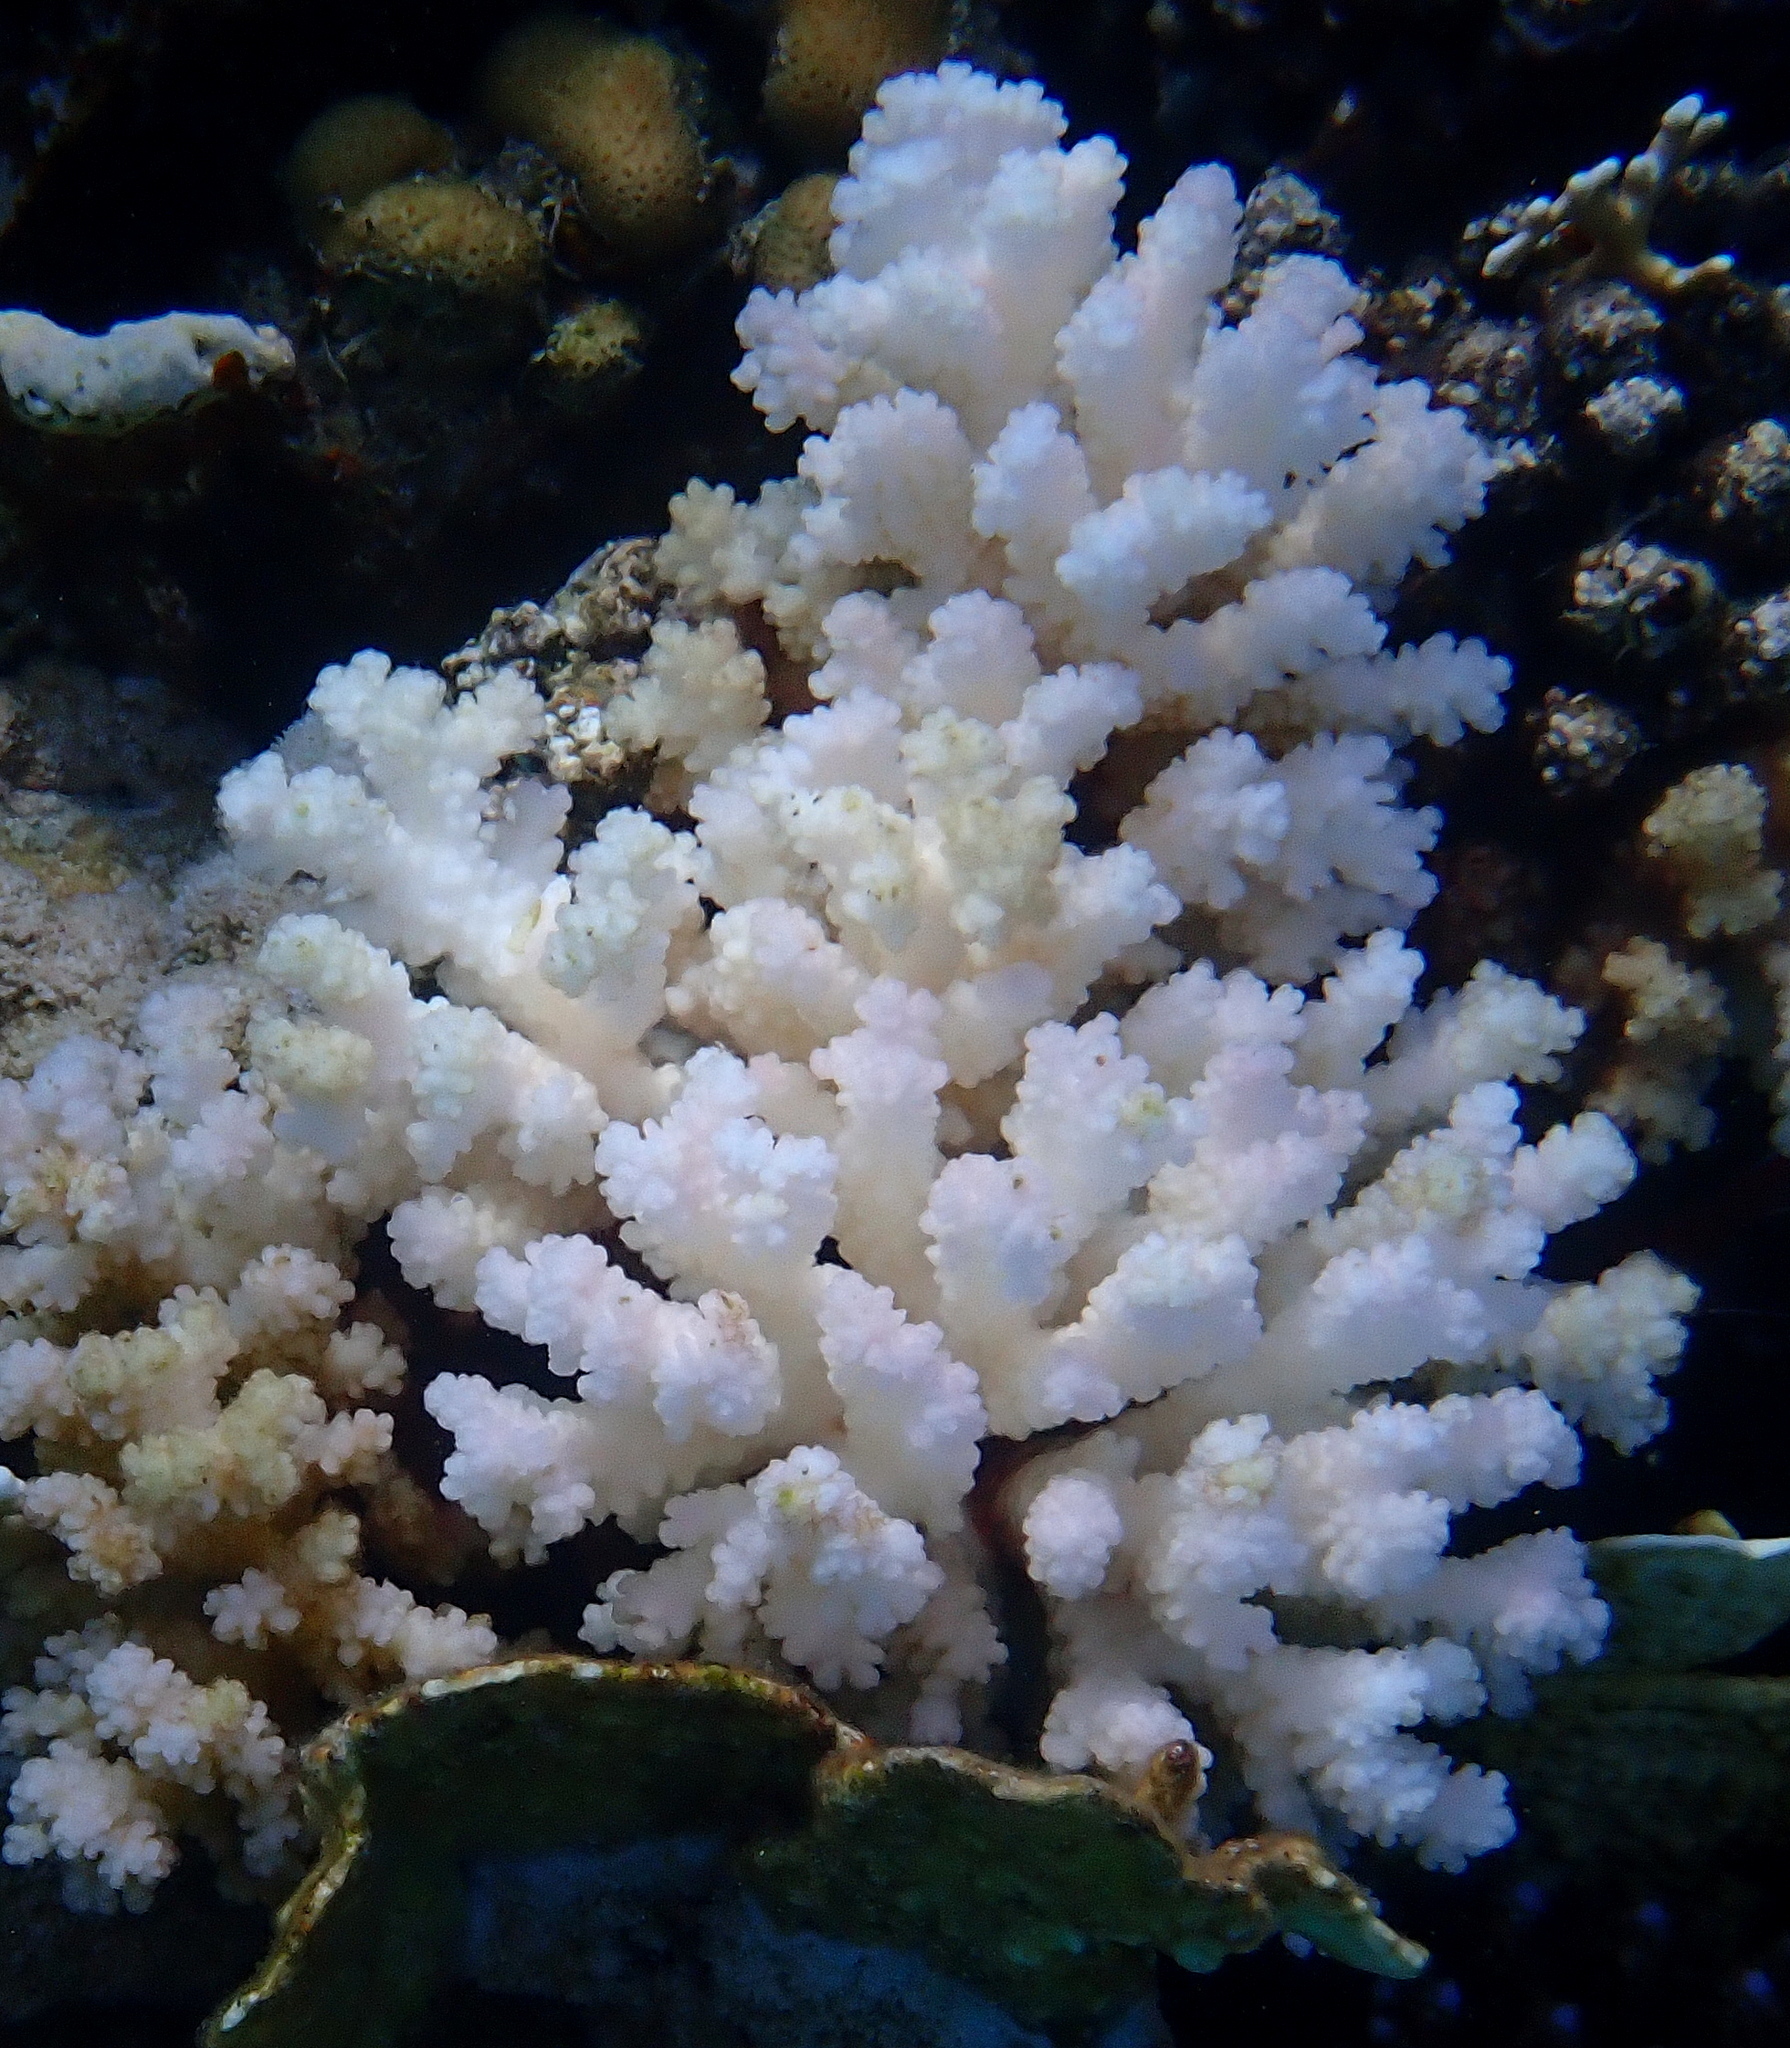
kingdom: Animalia
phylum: Cnidaria
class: Anthozoa
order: Scleractinia
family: Pocilloporidae
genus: Pocillopora
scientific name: Pocillopora verrucosa
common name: Cauliflower coral
